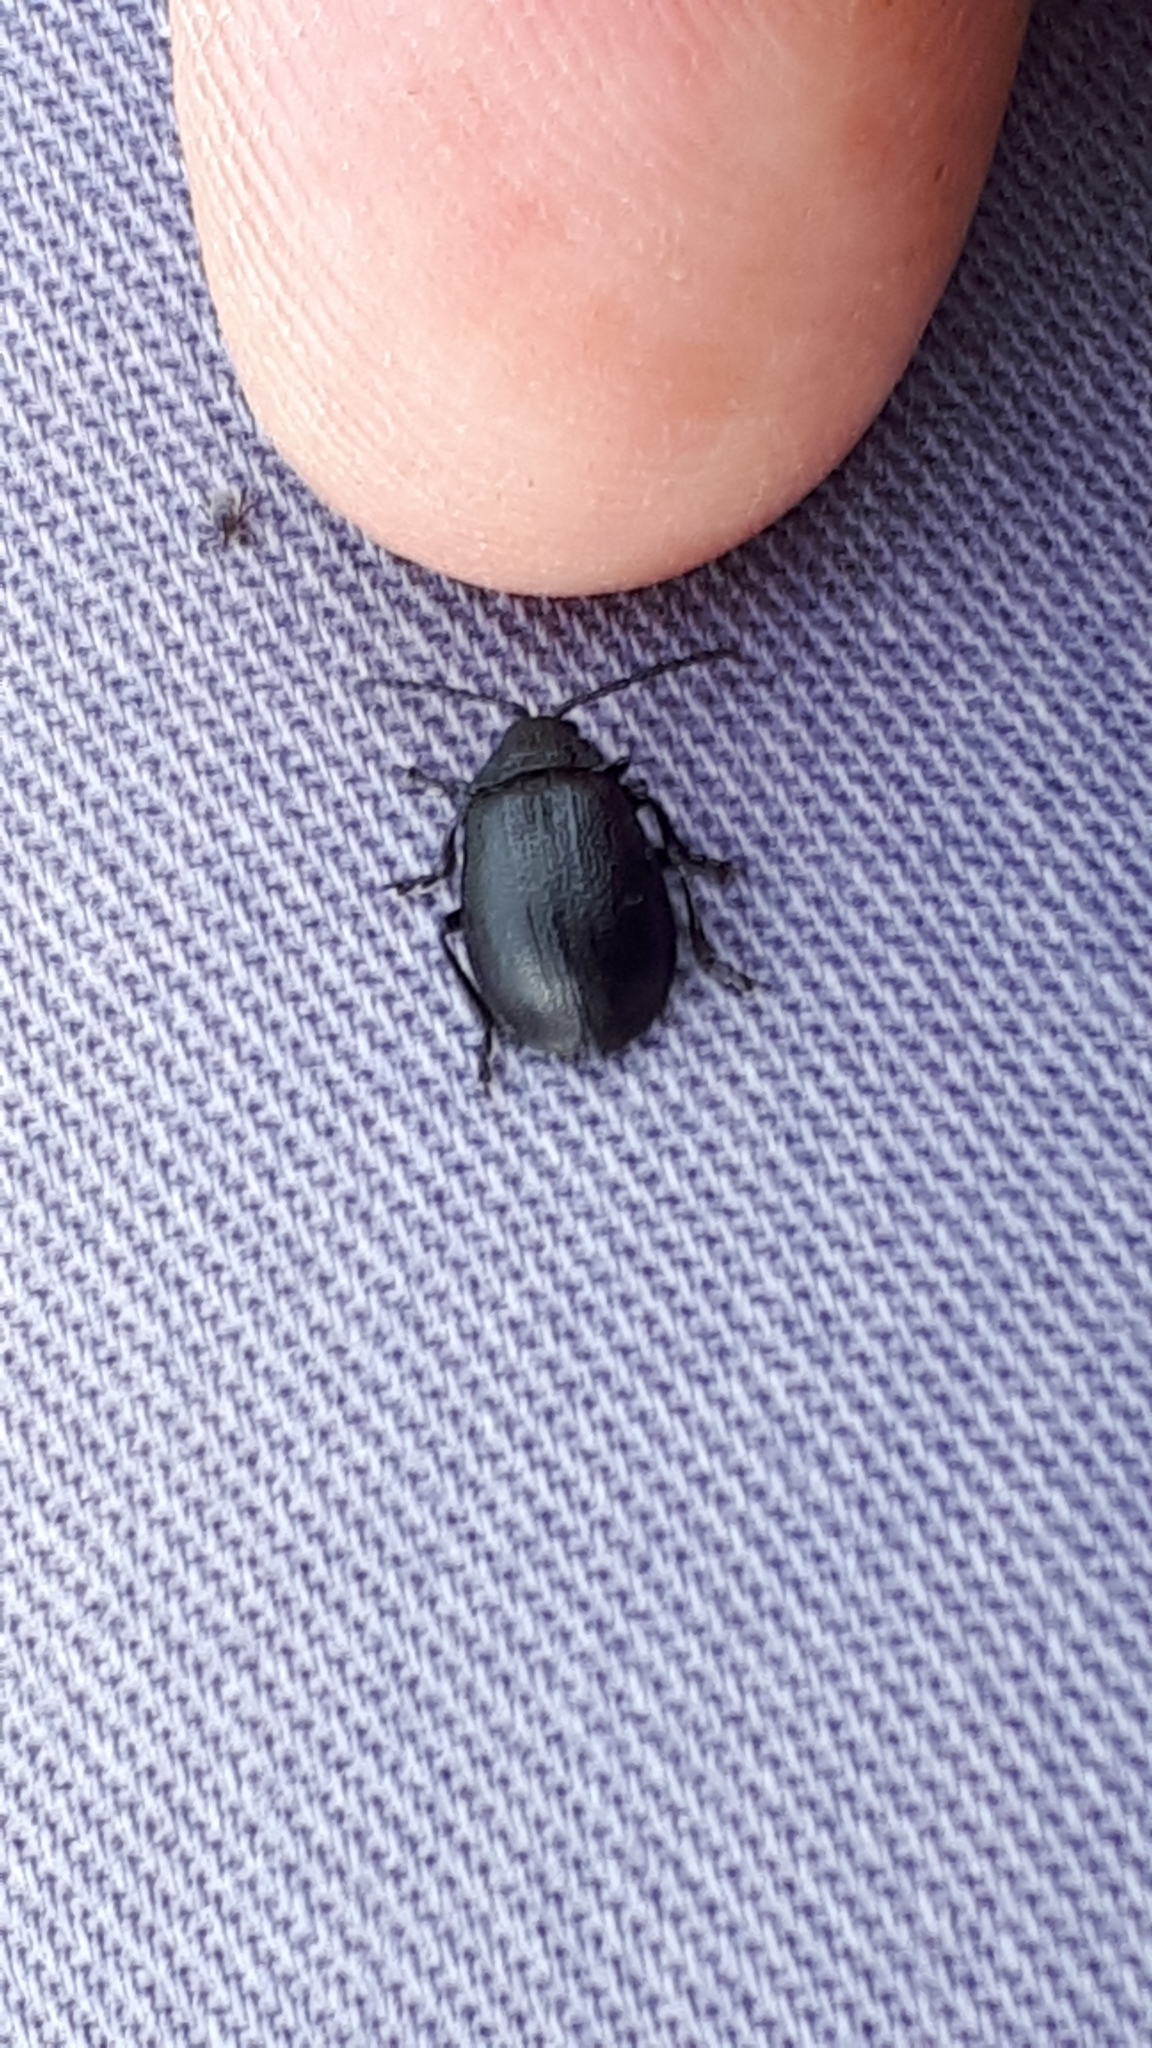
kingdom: Animalia
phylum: Arthropoda
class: Insecta
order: Coleoptera
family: Chrysomelidae
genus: Galeruca
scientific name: Galeruca tanaceti
